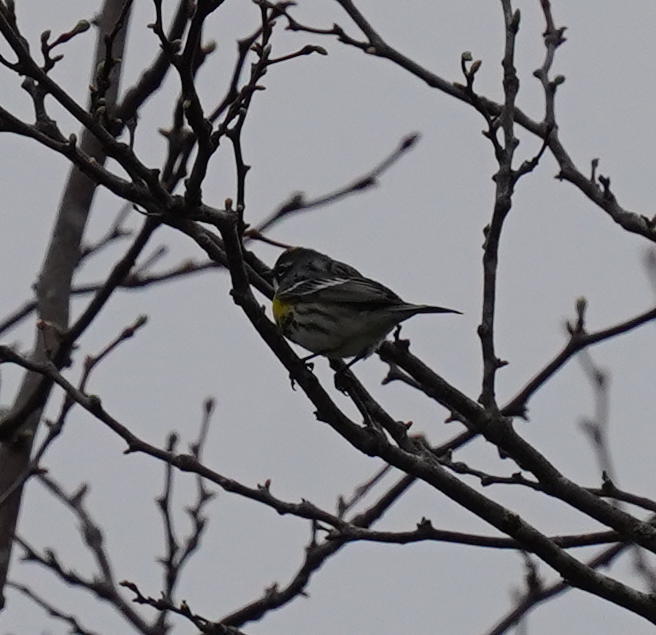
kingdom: Animalia
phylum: Chordata
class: Aves
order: Passeriformes
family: Parulidae
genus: Setophaga
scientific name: Setophaga coronata
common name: Myrtle warbler
